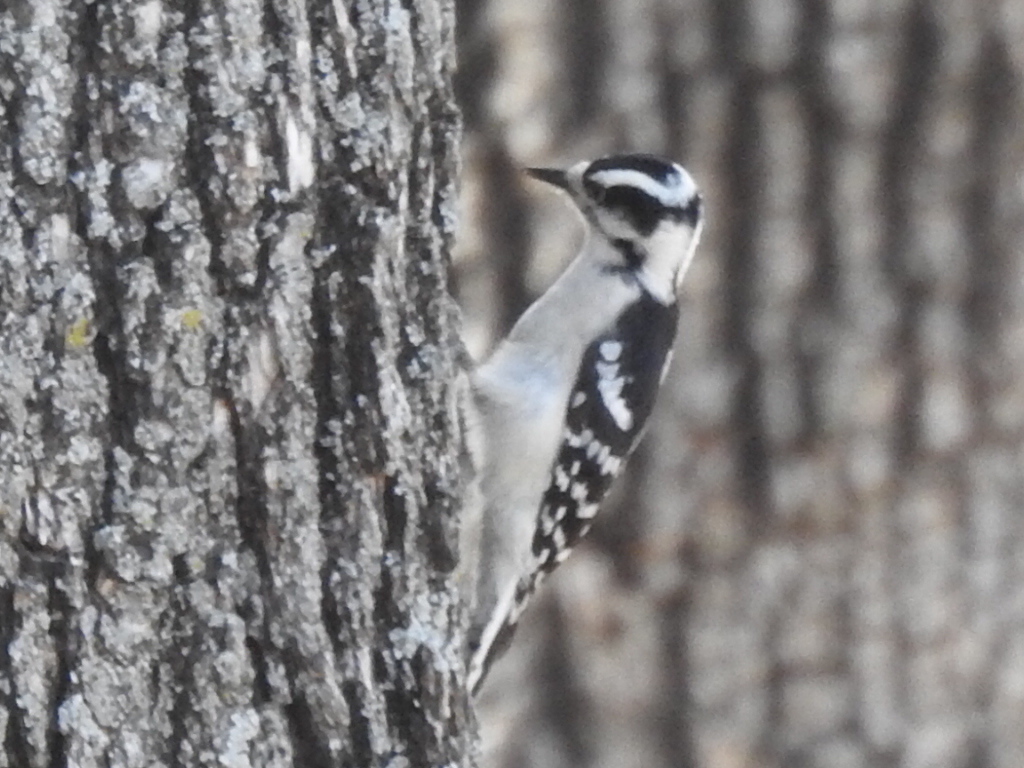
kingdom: Animalia
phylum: Chordata
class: Aves
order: Piciformes
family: Picidae
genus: Dryobates
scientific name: Dryobates pubescens
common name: Downy woodpecker
